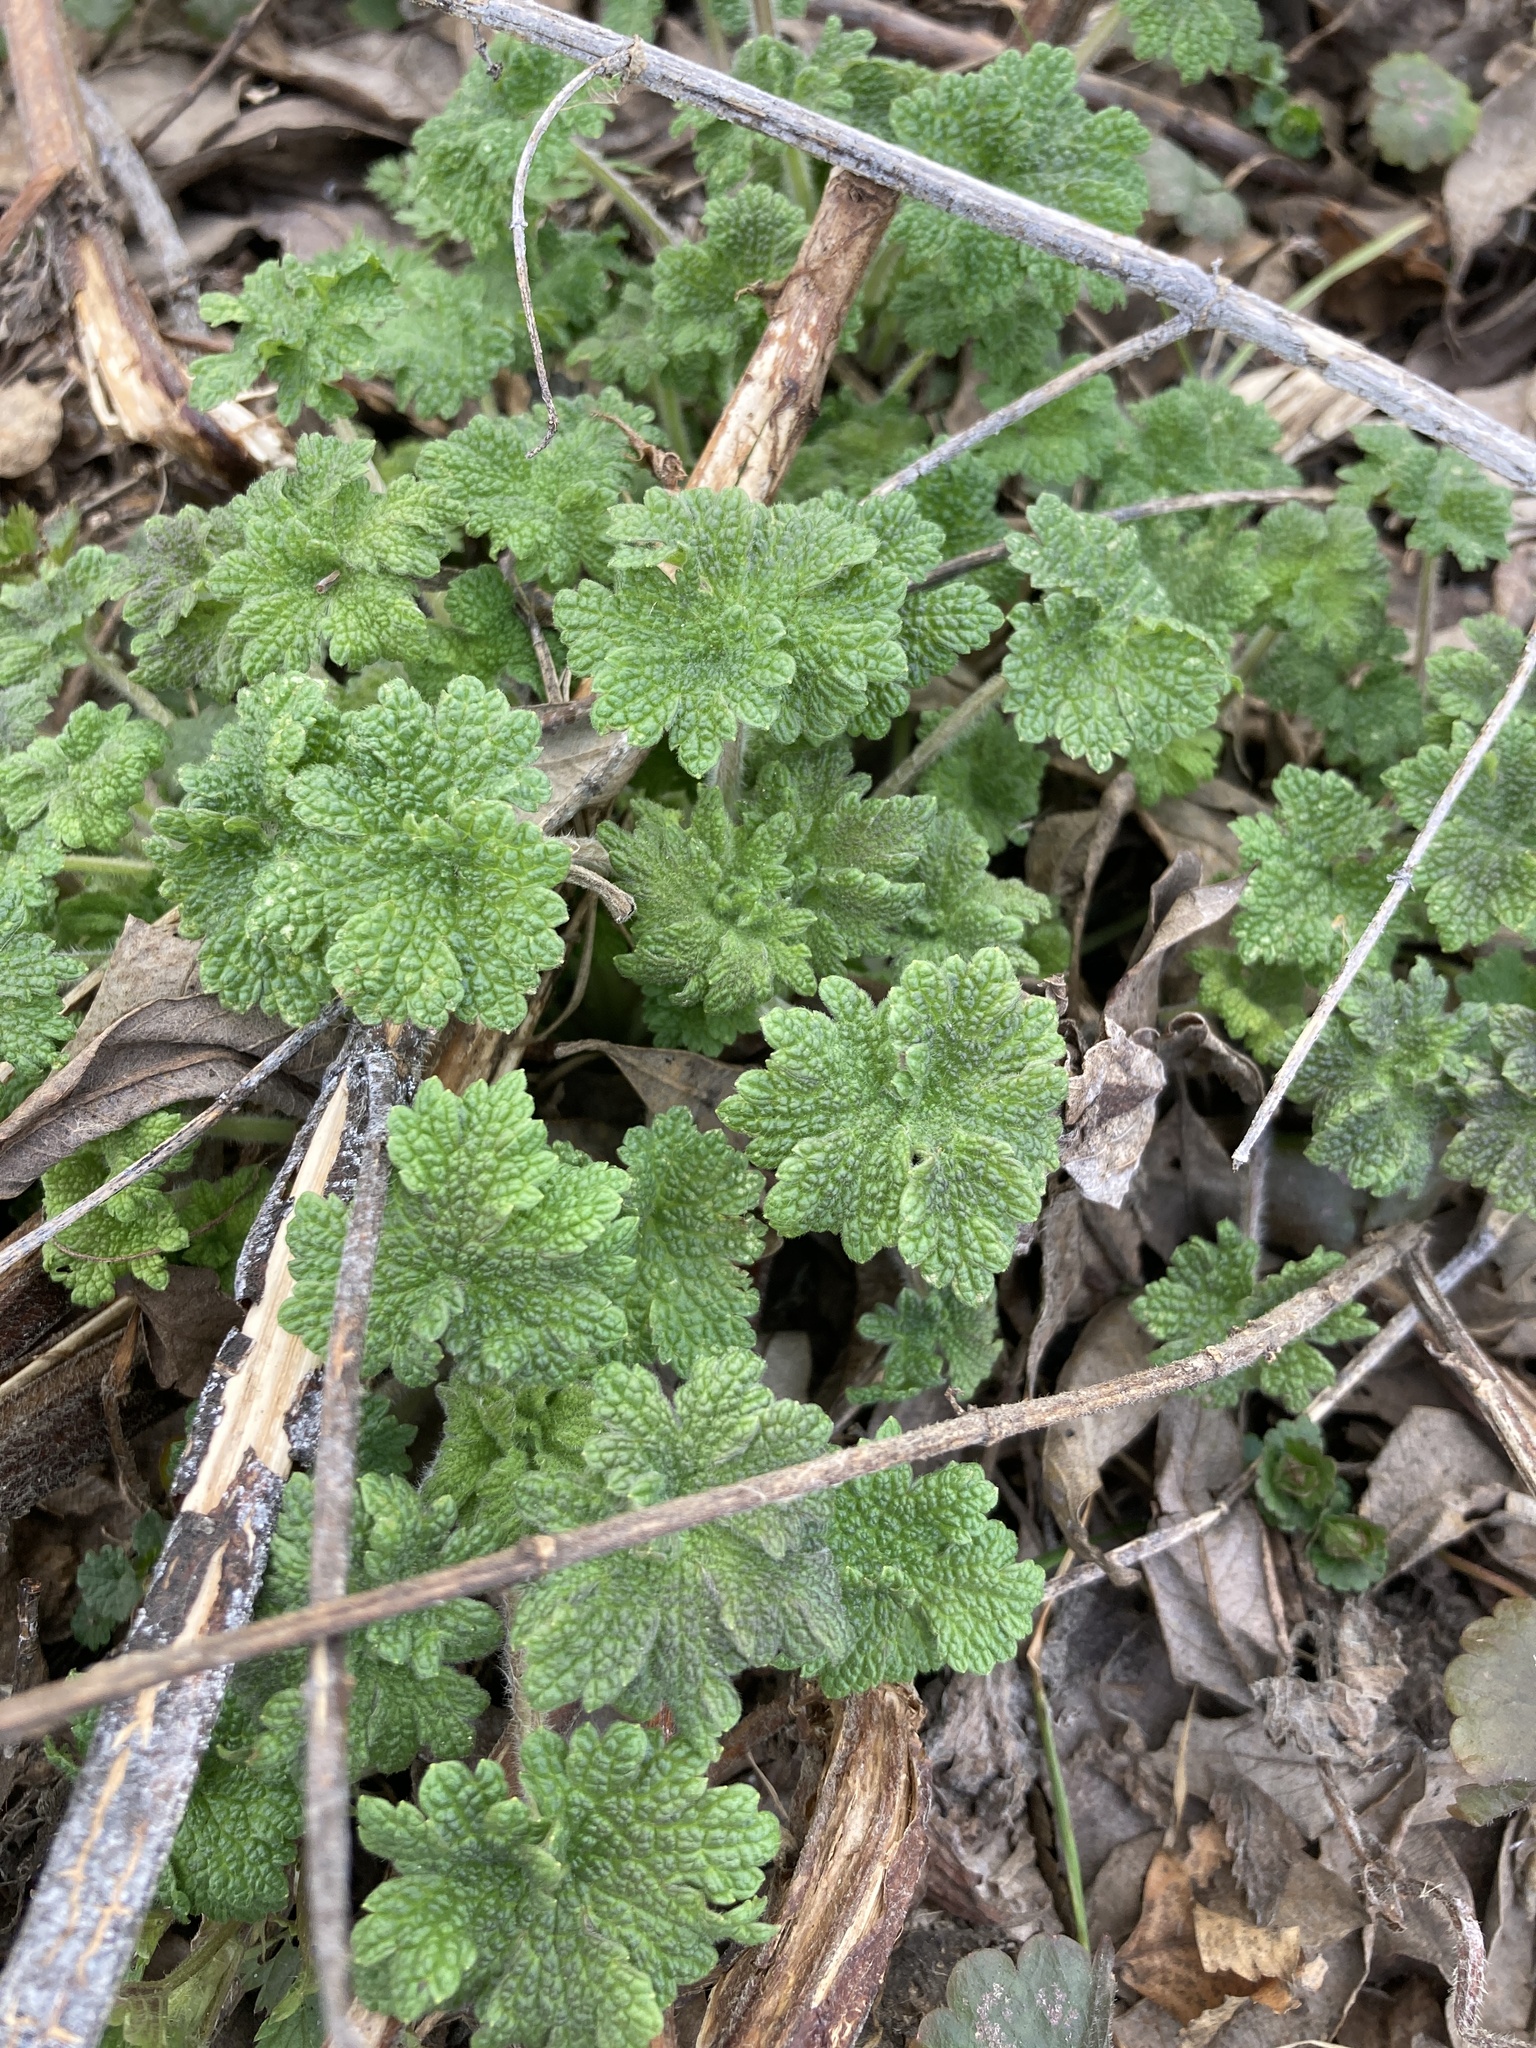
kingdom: Plantae
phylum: Tracheophyta
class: Magnoliopsida
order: Lamiales
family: Lamiaceae
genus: Leonurus
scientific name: Leonurus quinquelobatus
